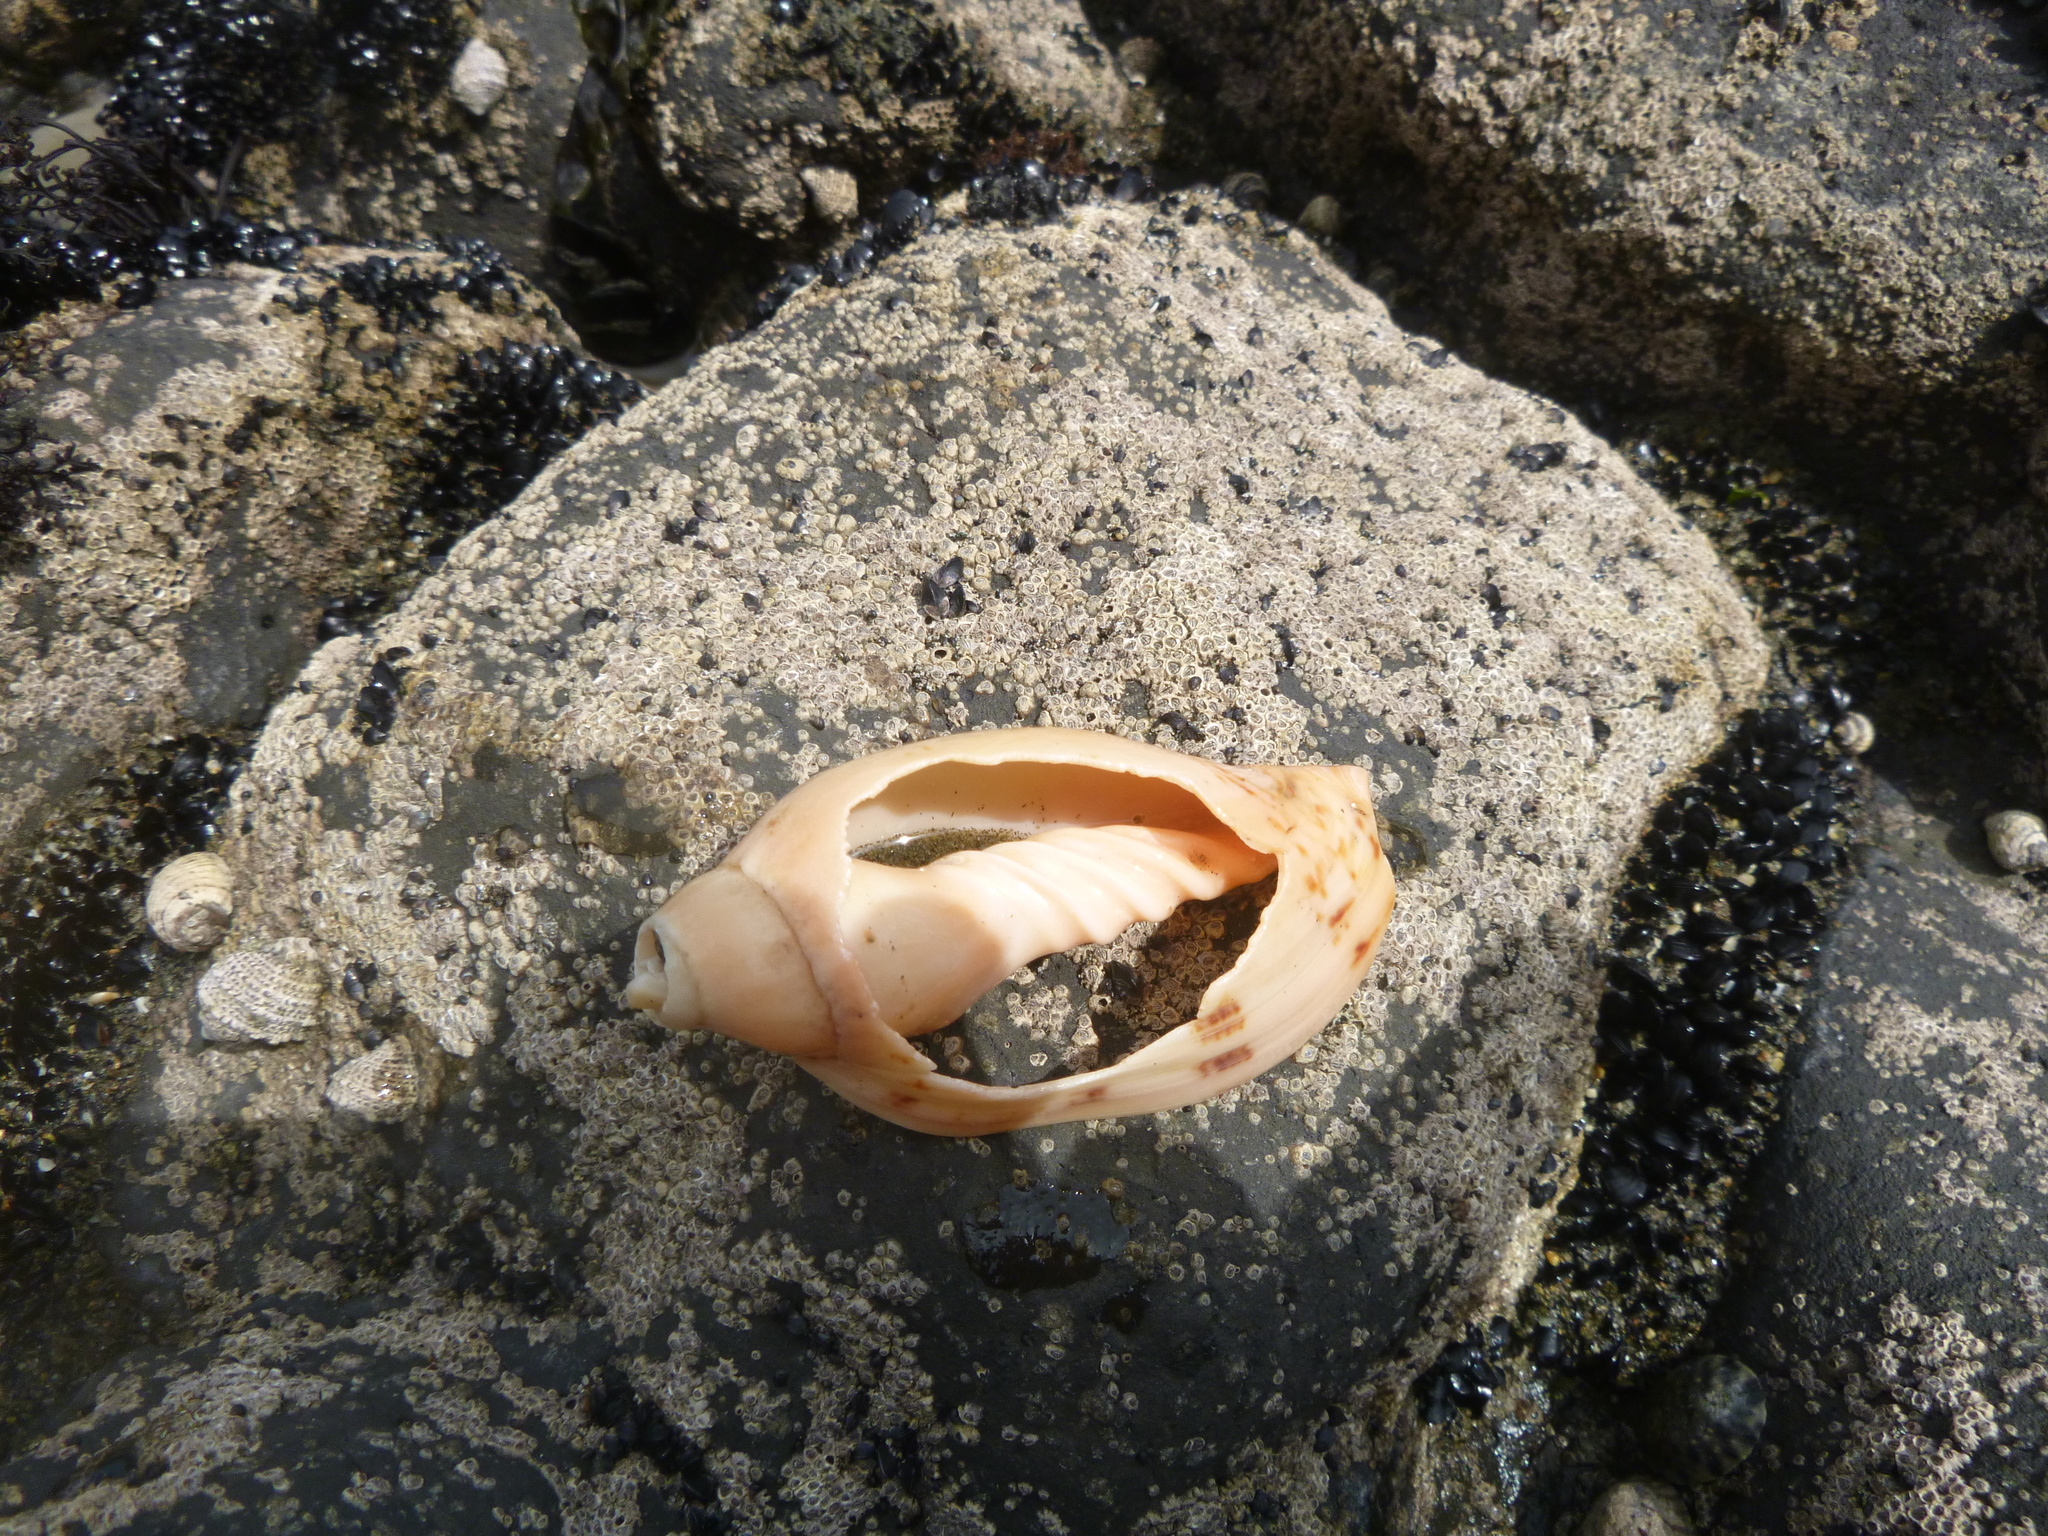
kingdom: Animalia
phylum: Mollusca
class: Gastropoda
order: Neogastropoda
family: Volutidae
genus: Alcithoe
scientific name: Alcithoe arabica
